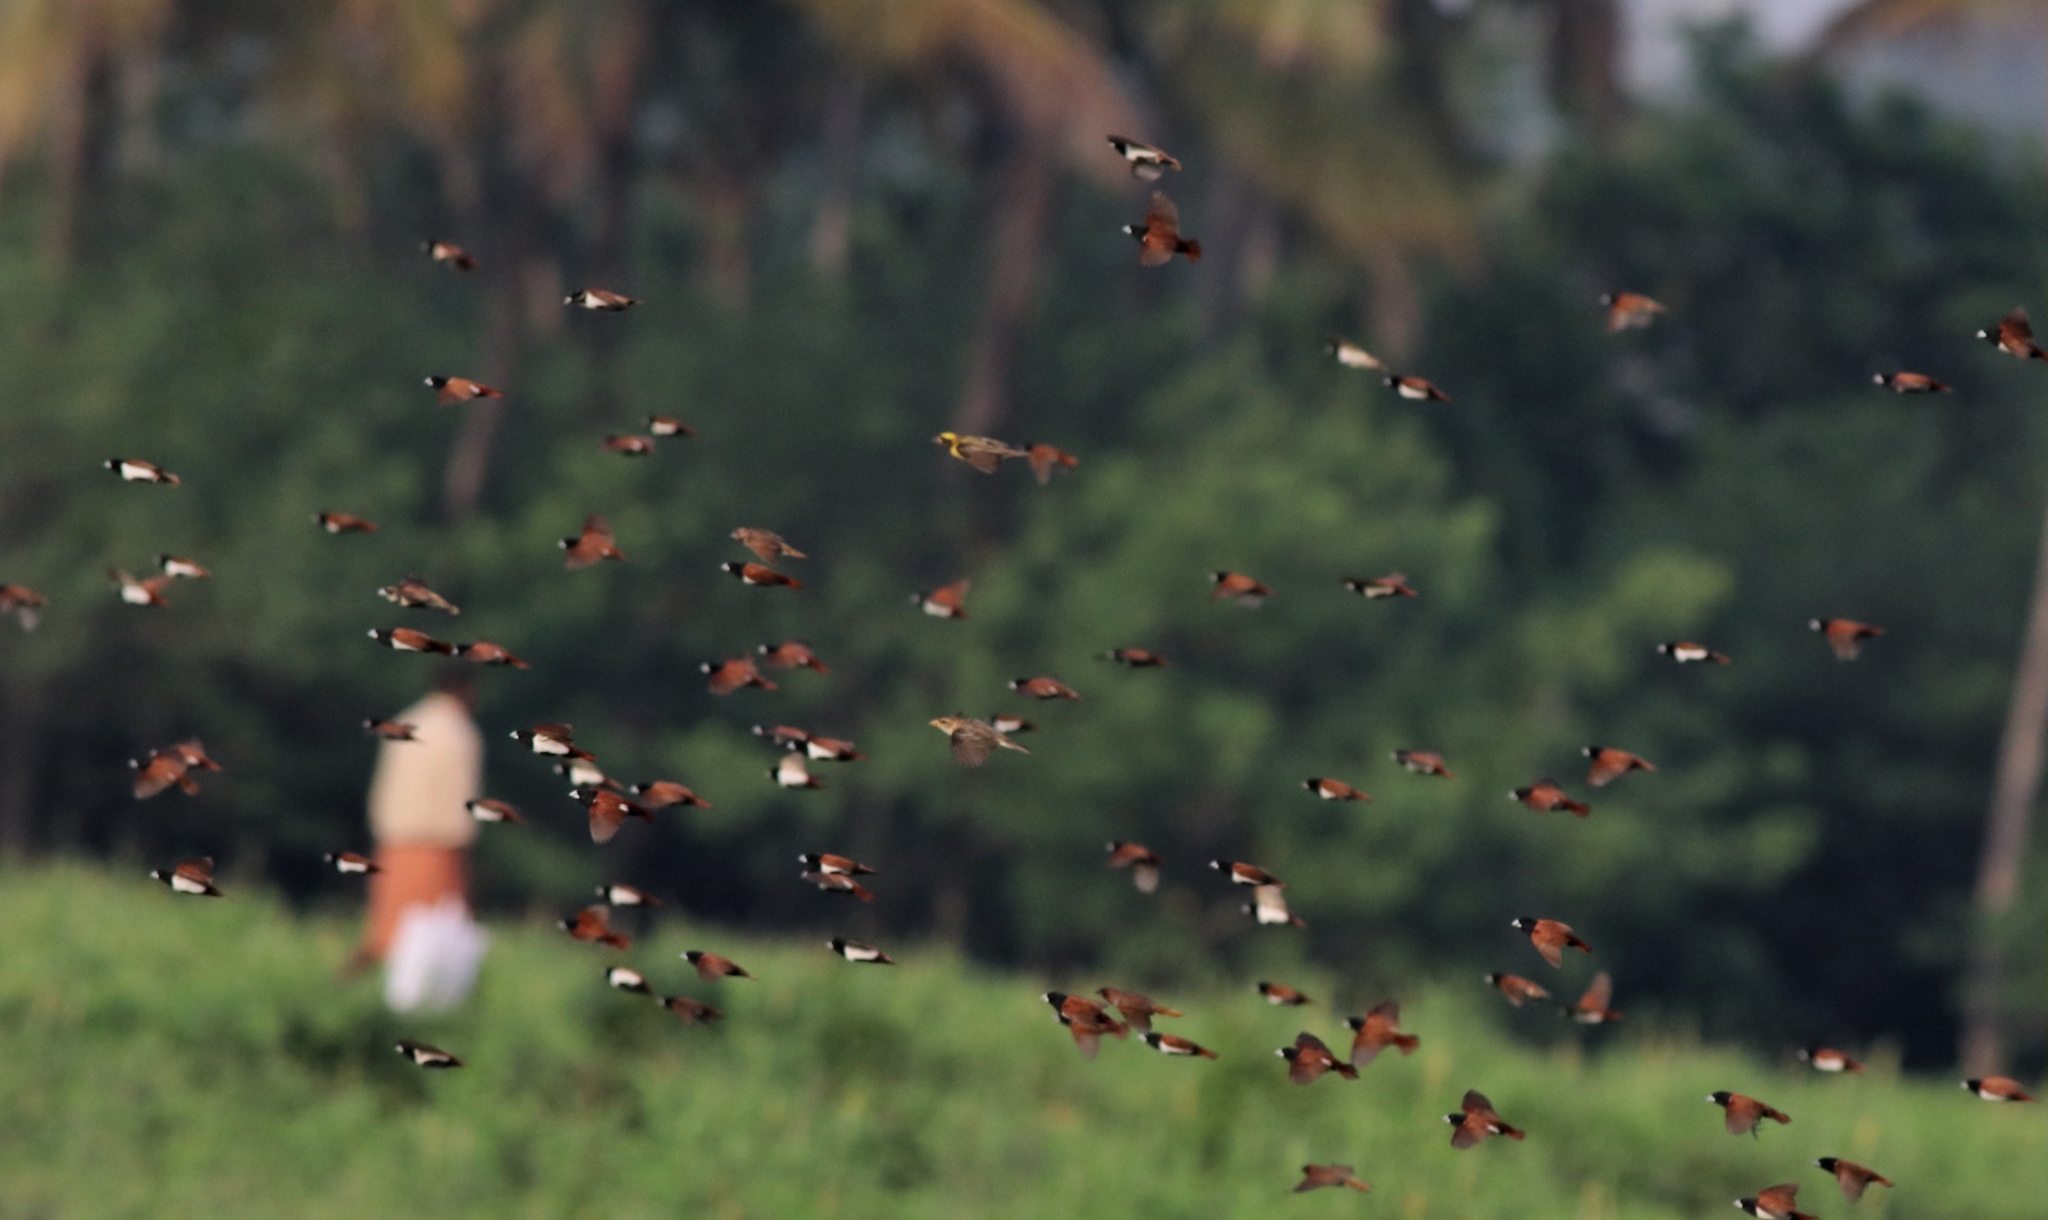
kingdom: Animalia
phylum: Chordata
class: Aves
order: Passeriformes
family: Estrildidae
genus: Lonchura
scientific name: Lonchura malacca
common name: Tricolored munia
